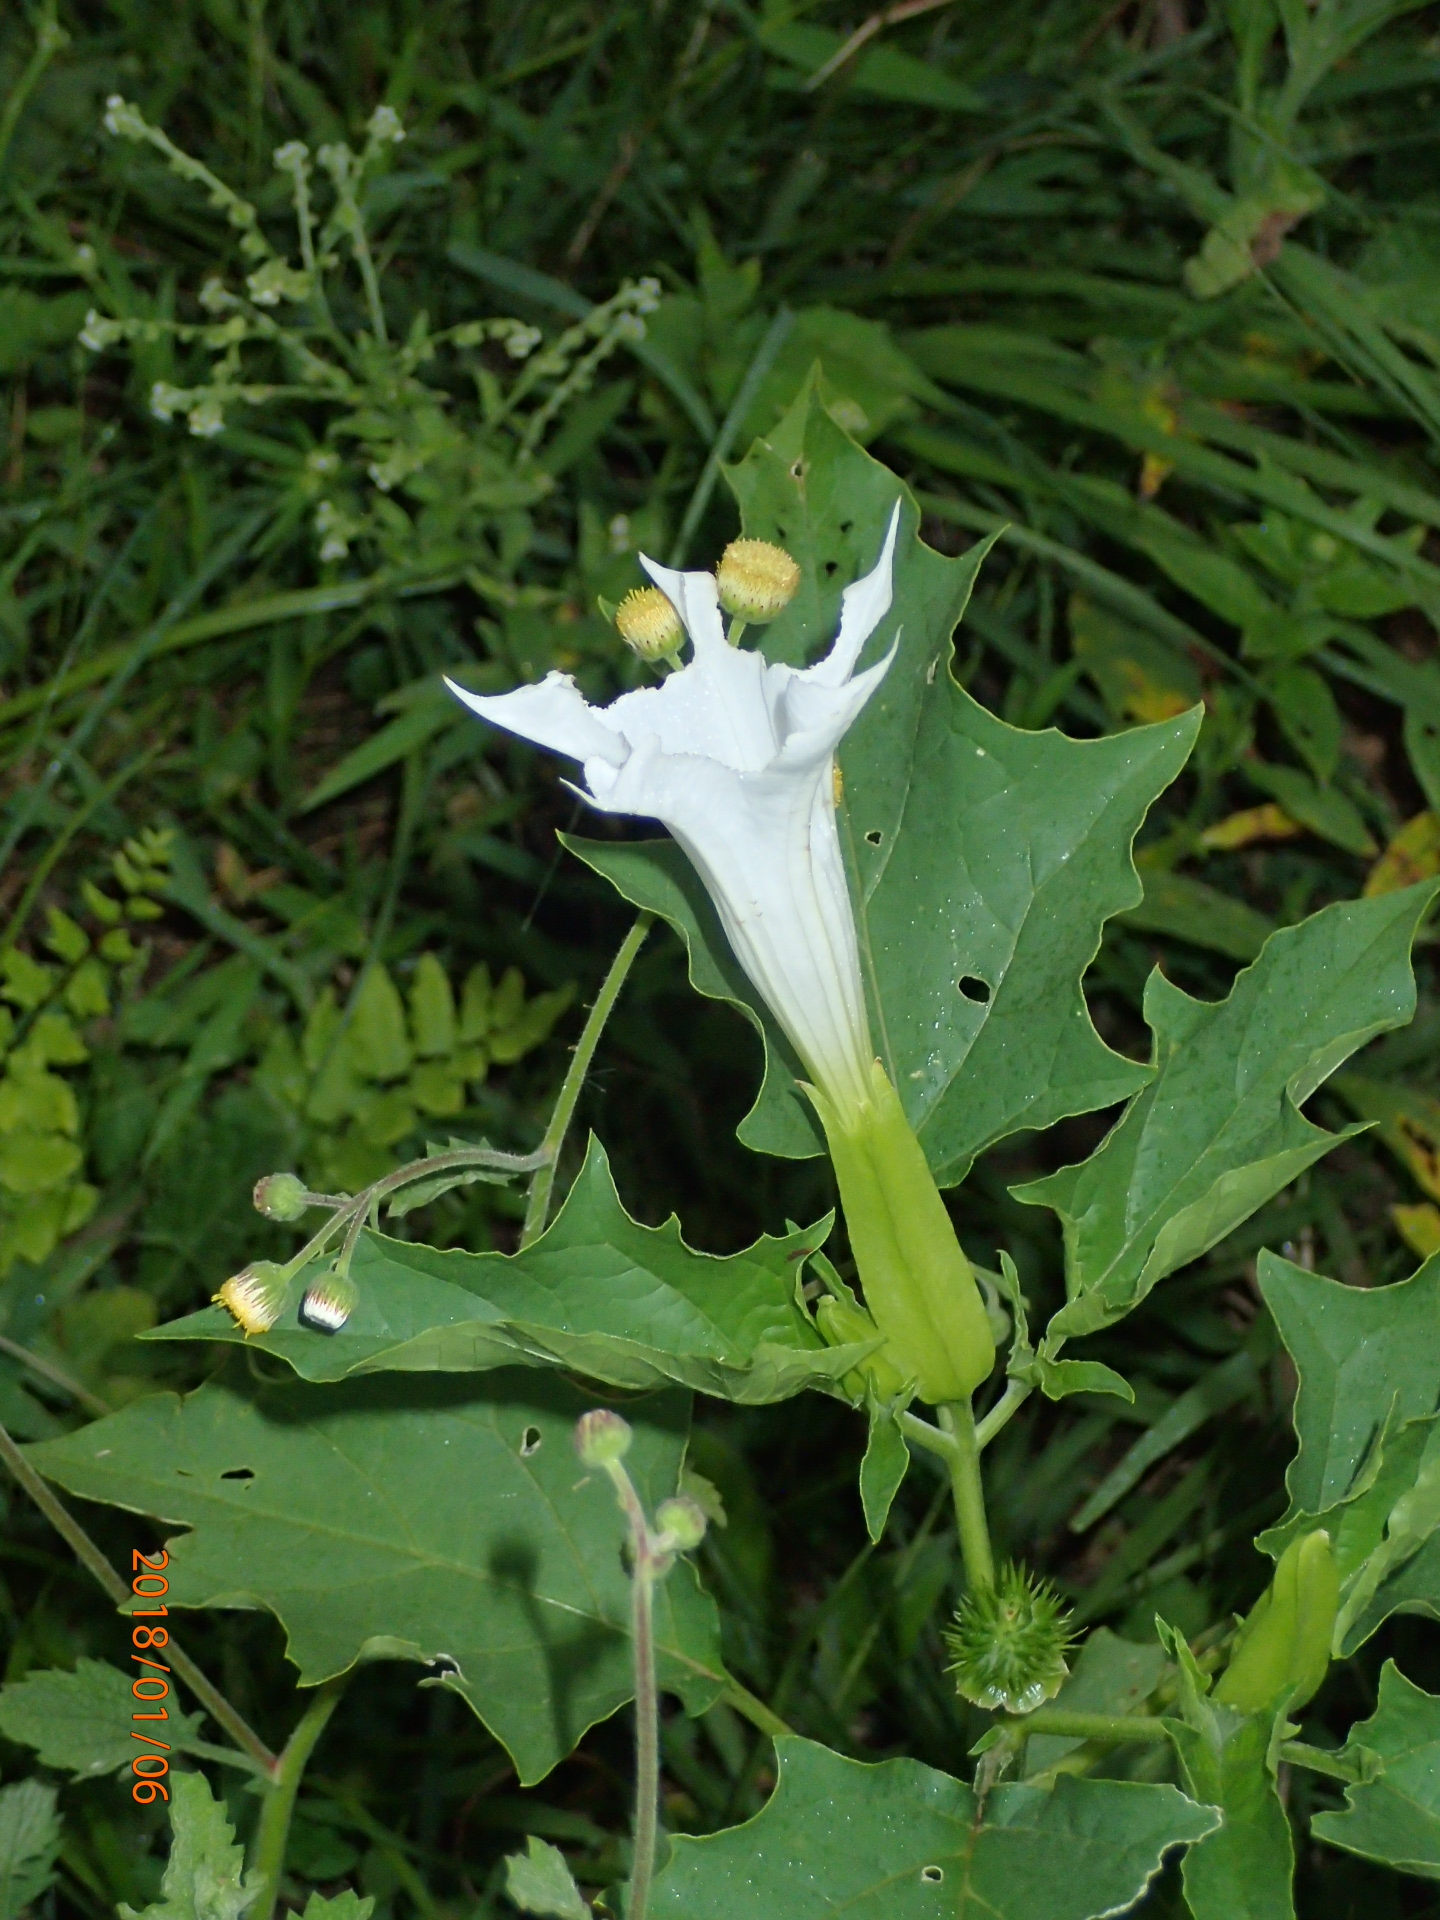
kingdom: Plantae
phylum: Tracheophyta
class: Magnoliopsida
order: Solanales
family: Solanaceae
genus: Datura
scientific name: Datura stramonium
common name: Thorn-apple
